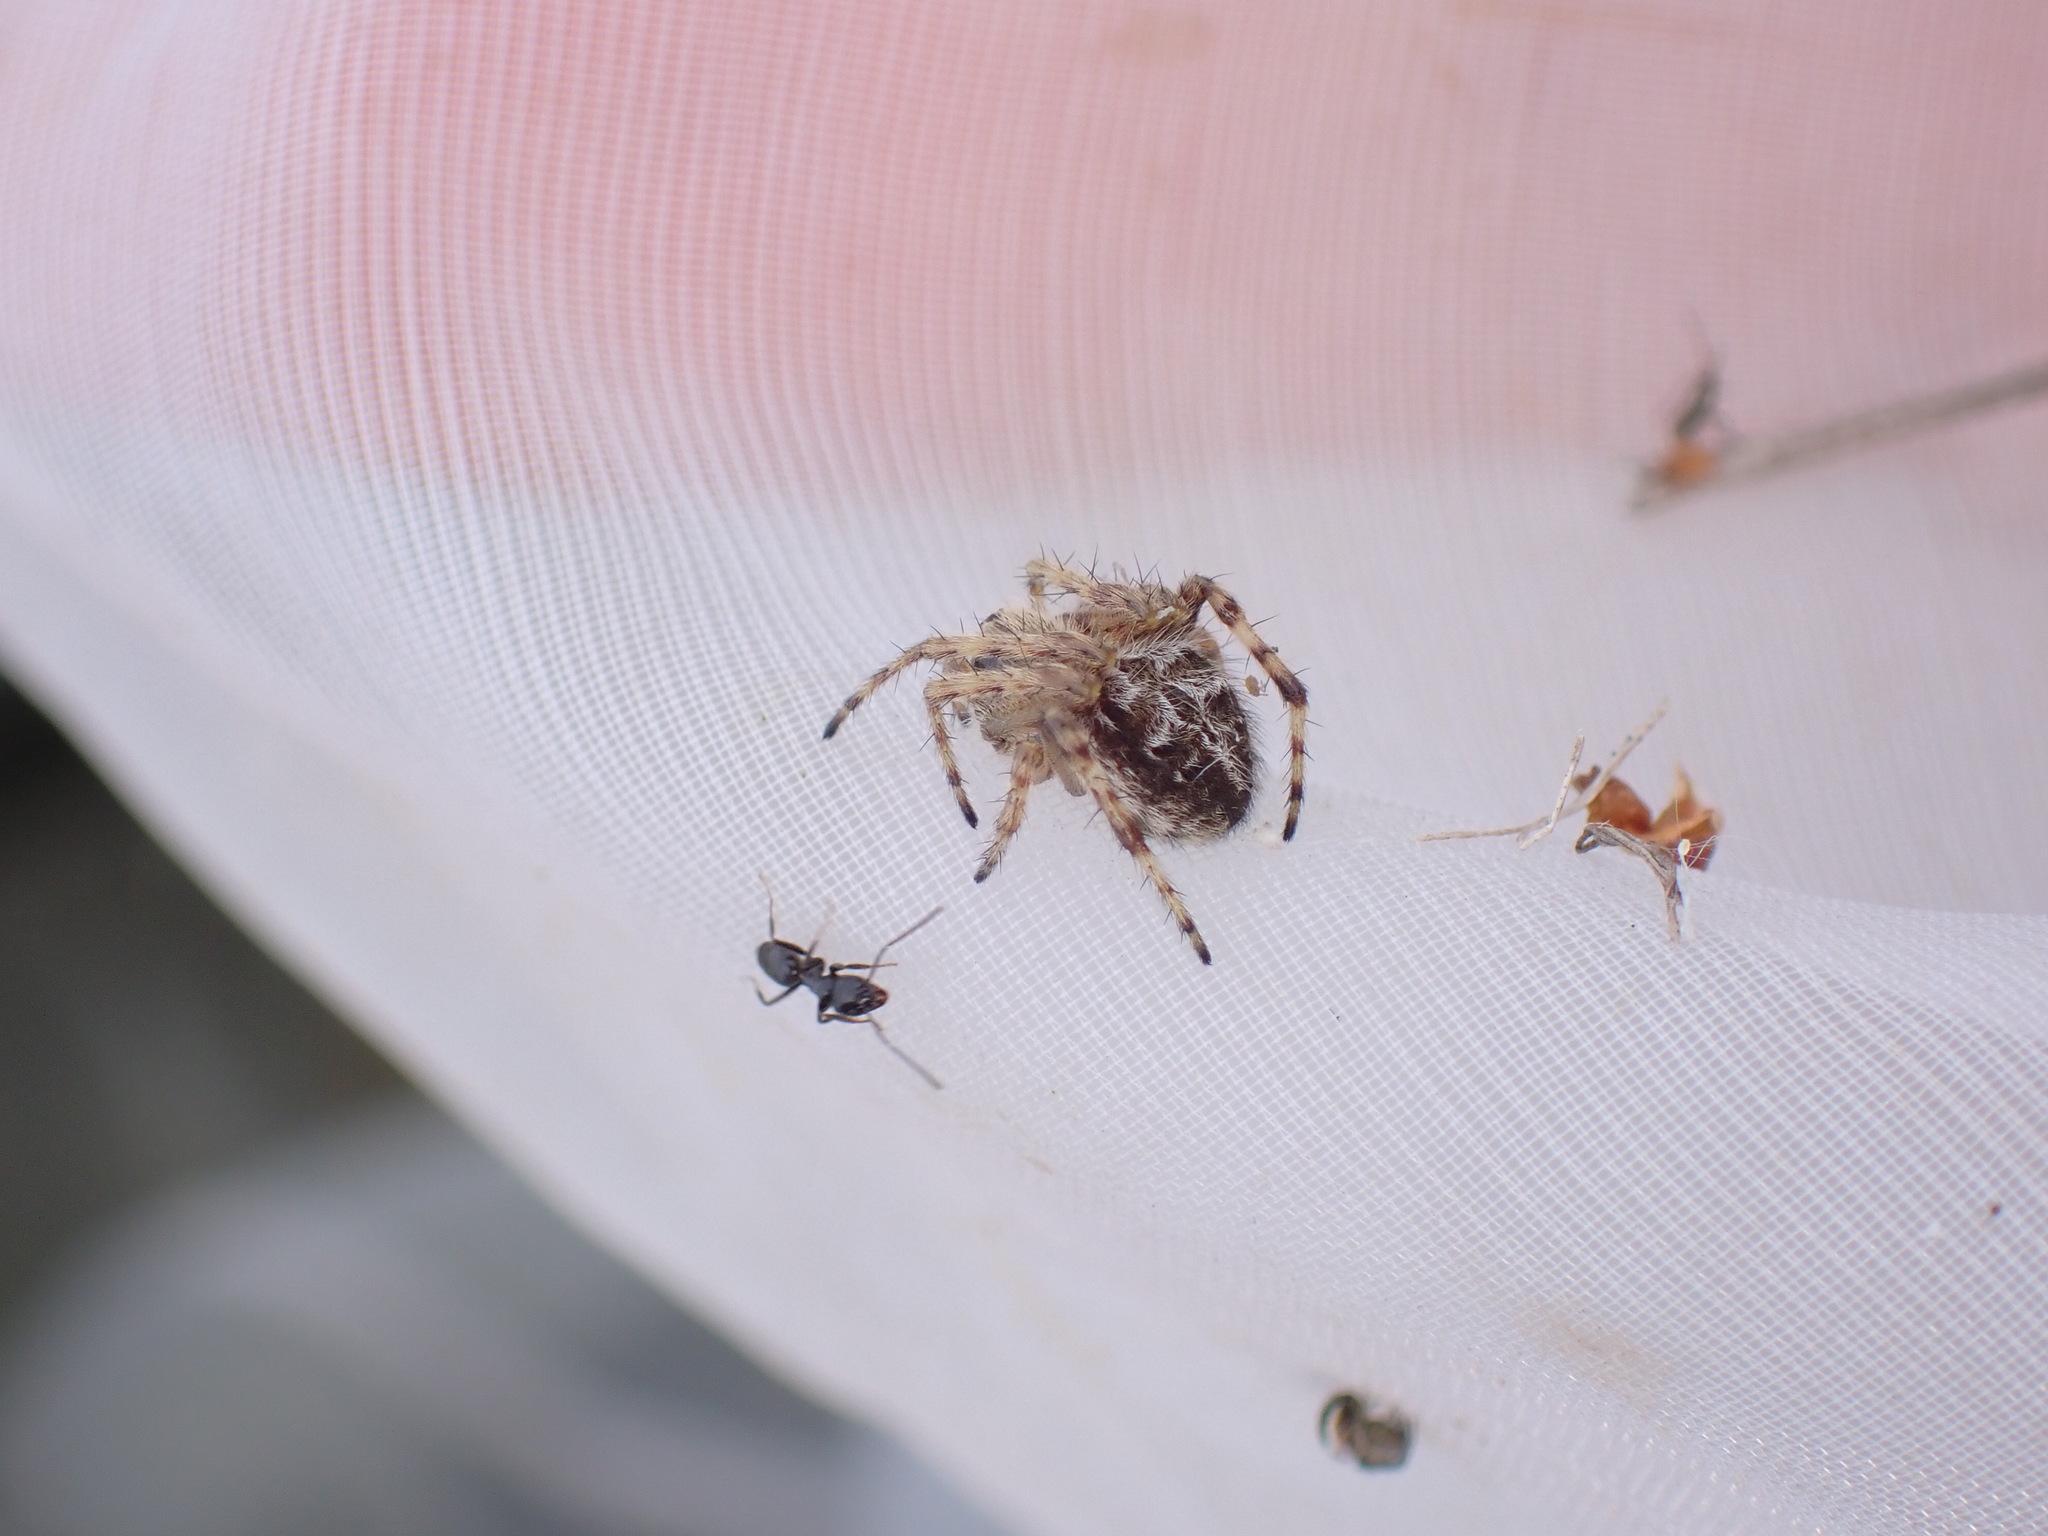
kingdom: Animalia
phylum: Arthropoda
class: Arachnida
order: Araneae
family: Araneidae
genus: Agalenatea
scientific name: Agalenatea redii
